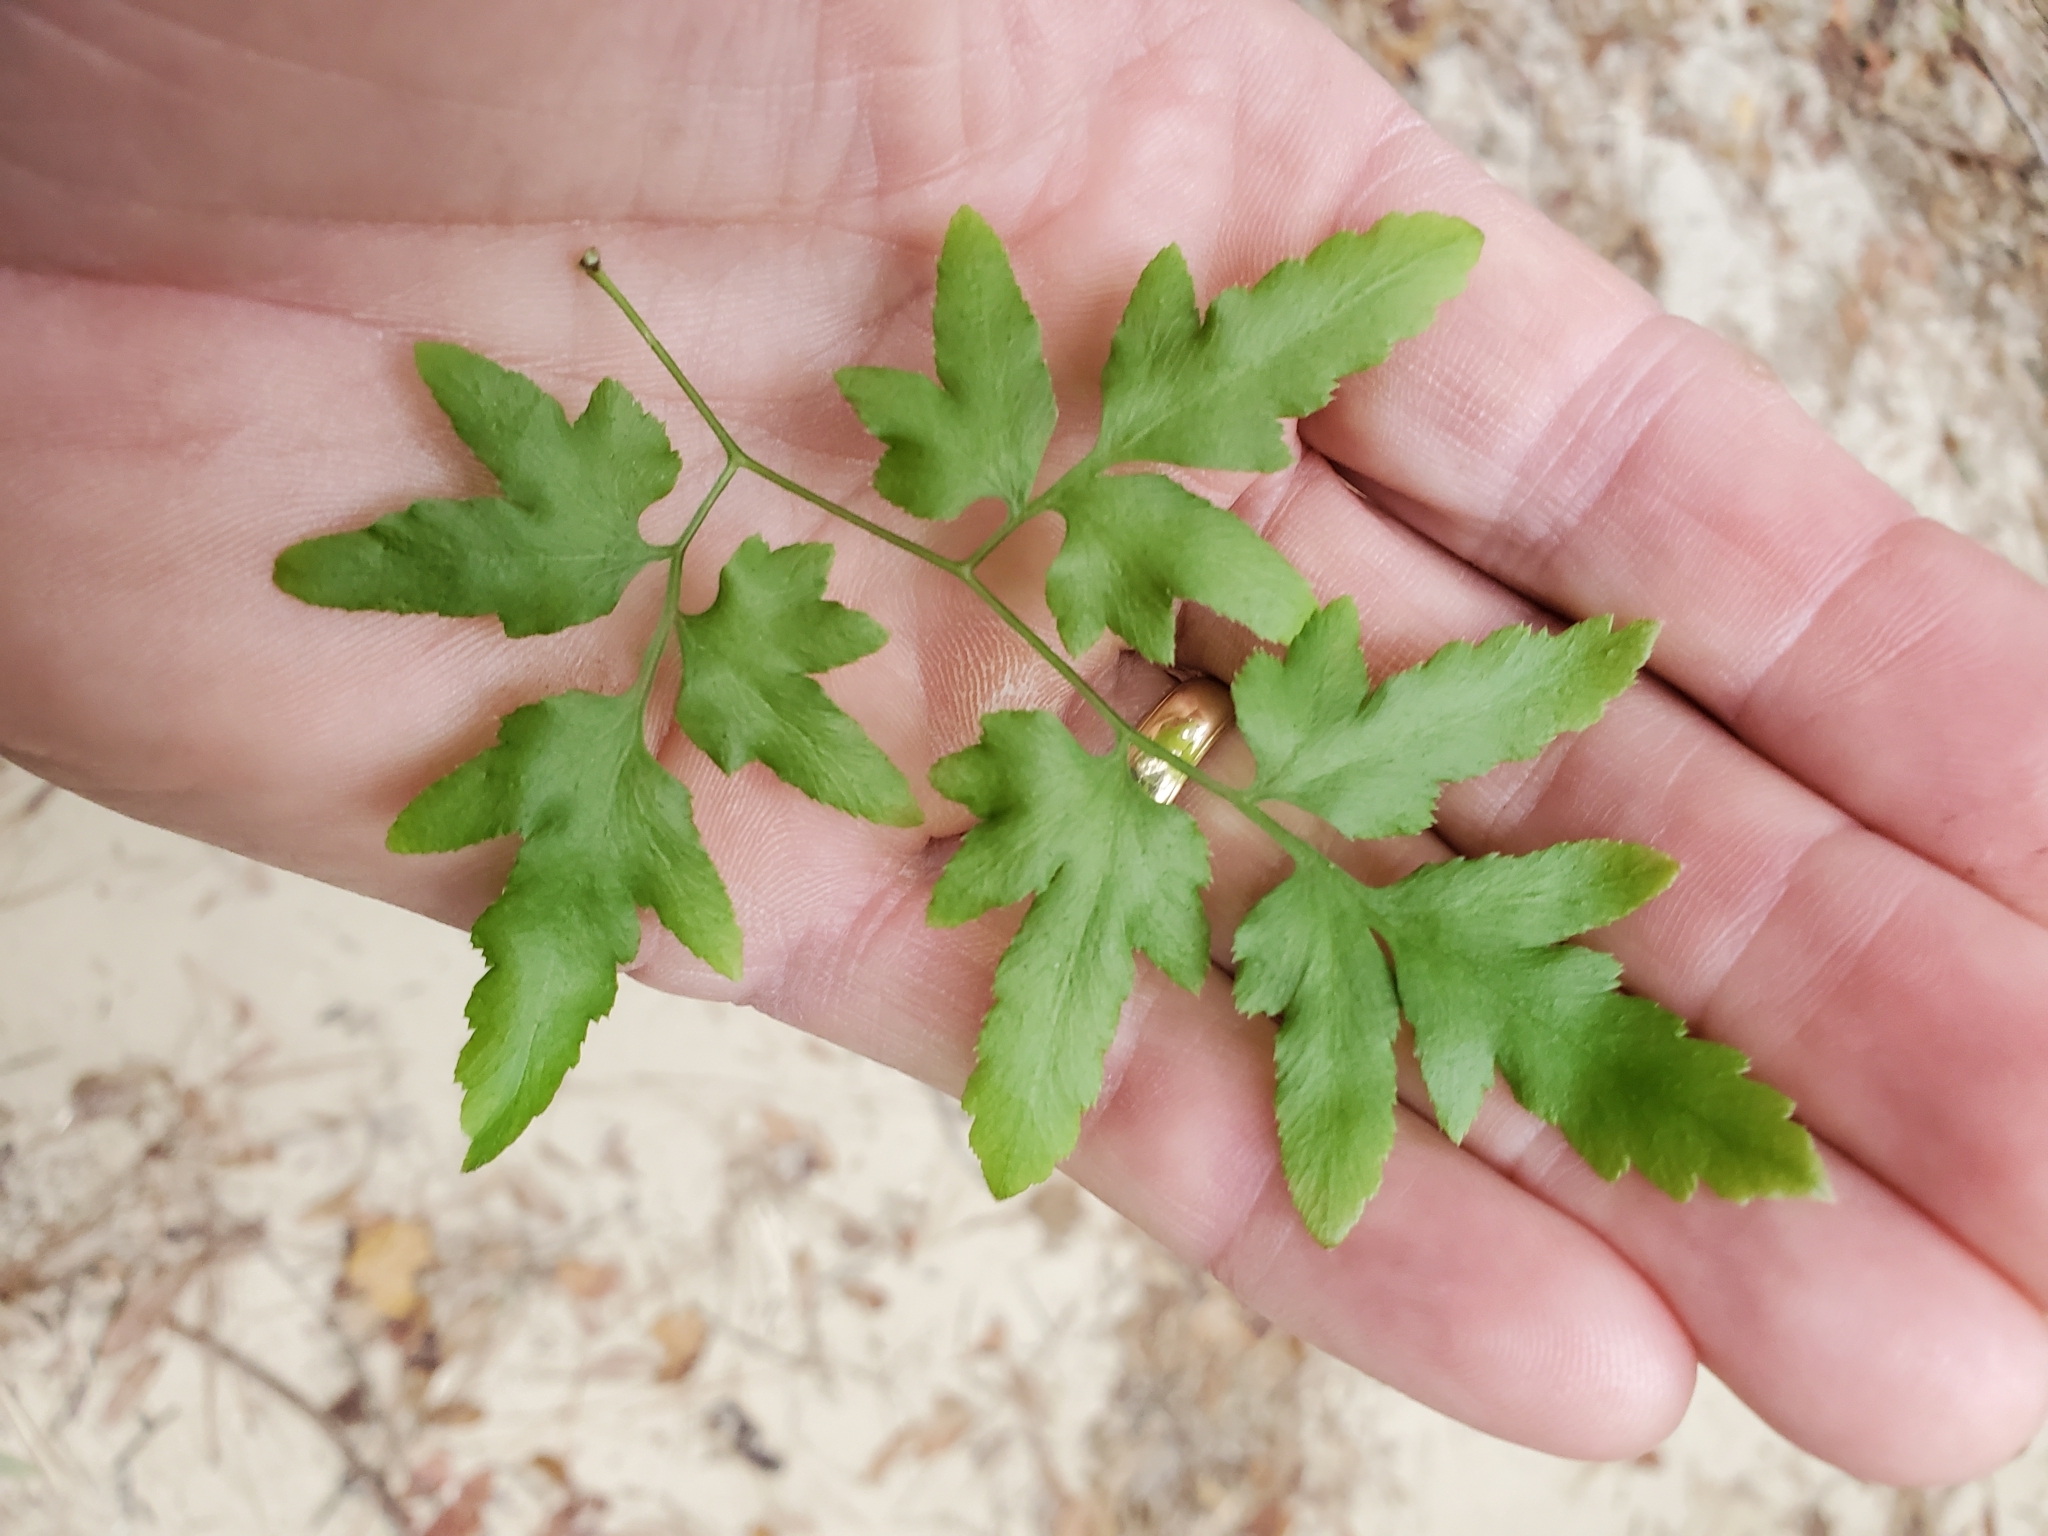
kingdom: Plantae
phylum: Tracheophyta
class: Polypodiopsida
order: Schizaeales
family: Lygodiaceae
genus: Lygodium
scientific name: Lygodium japonicum
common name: Japanese climbing fern
